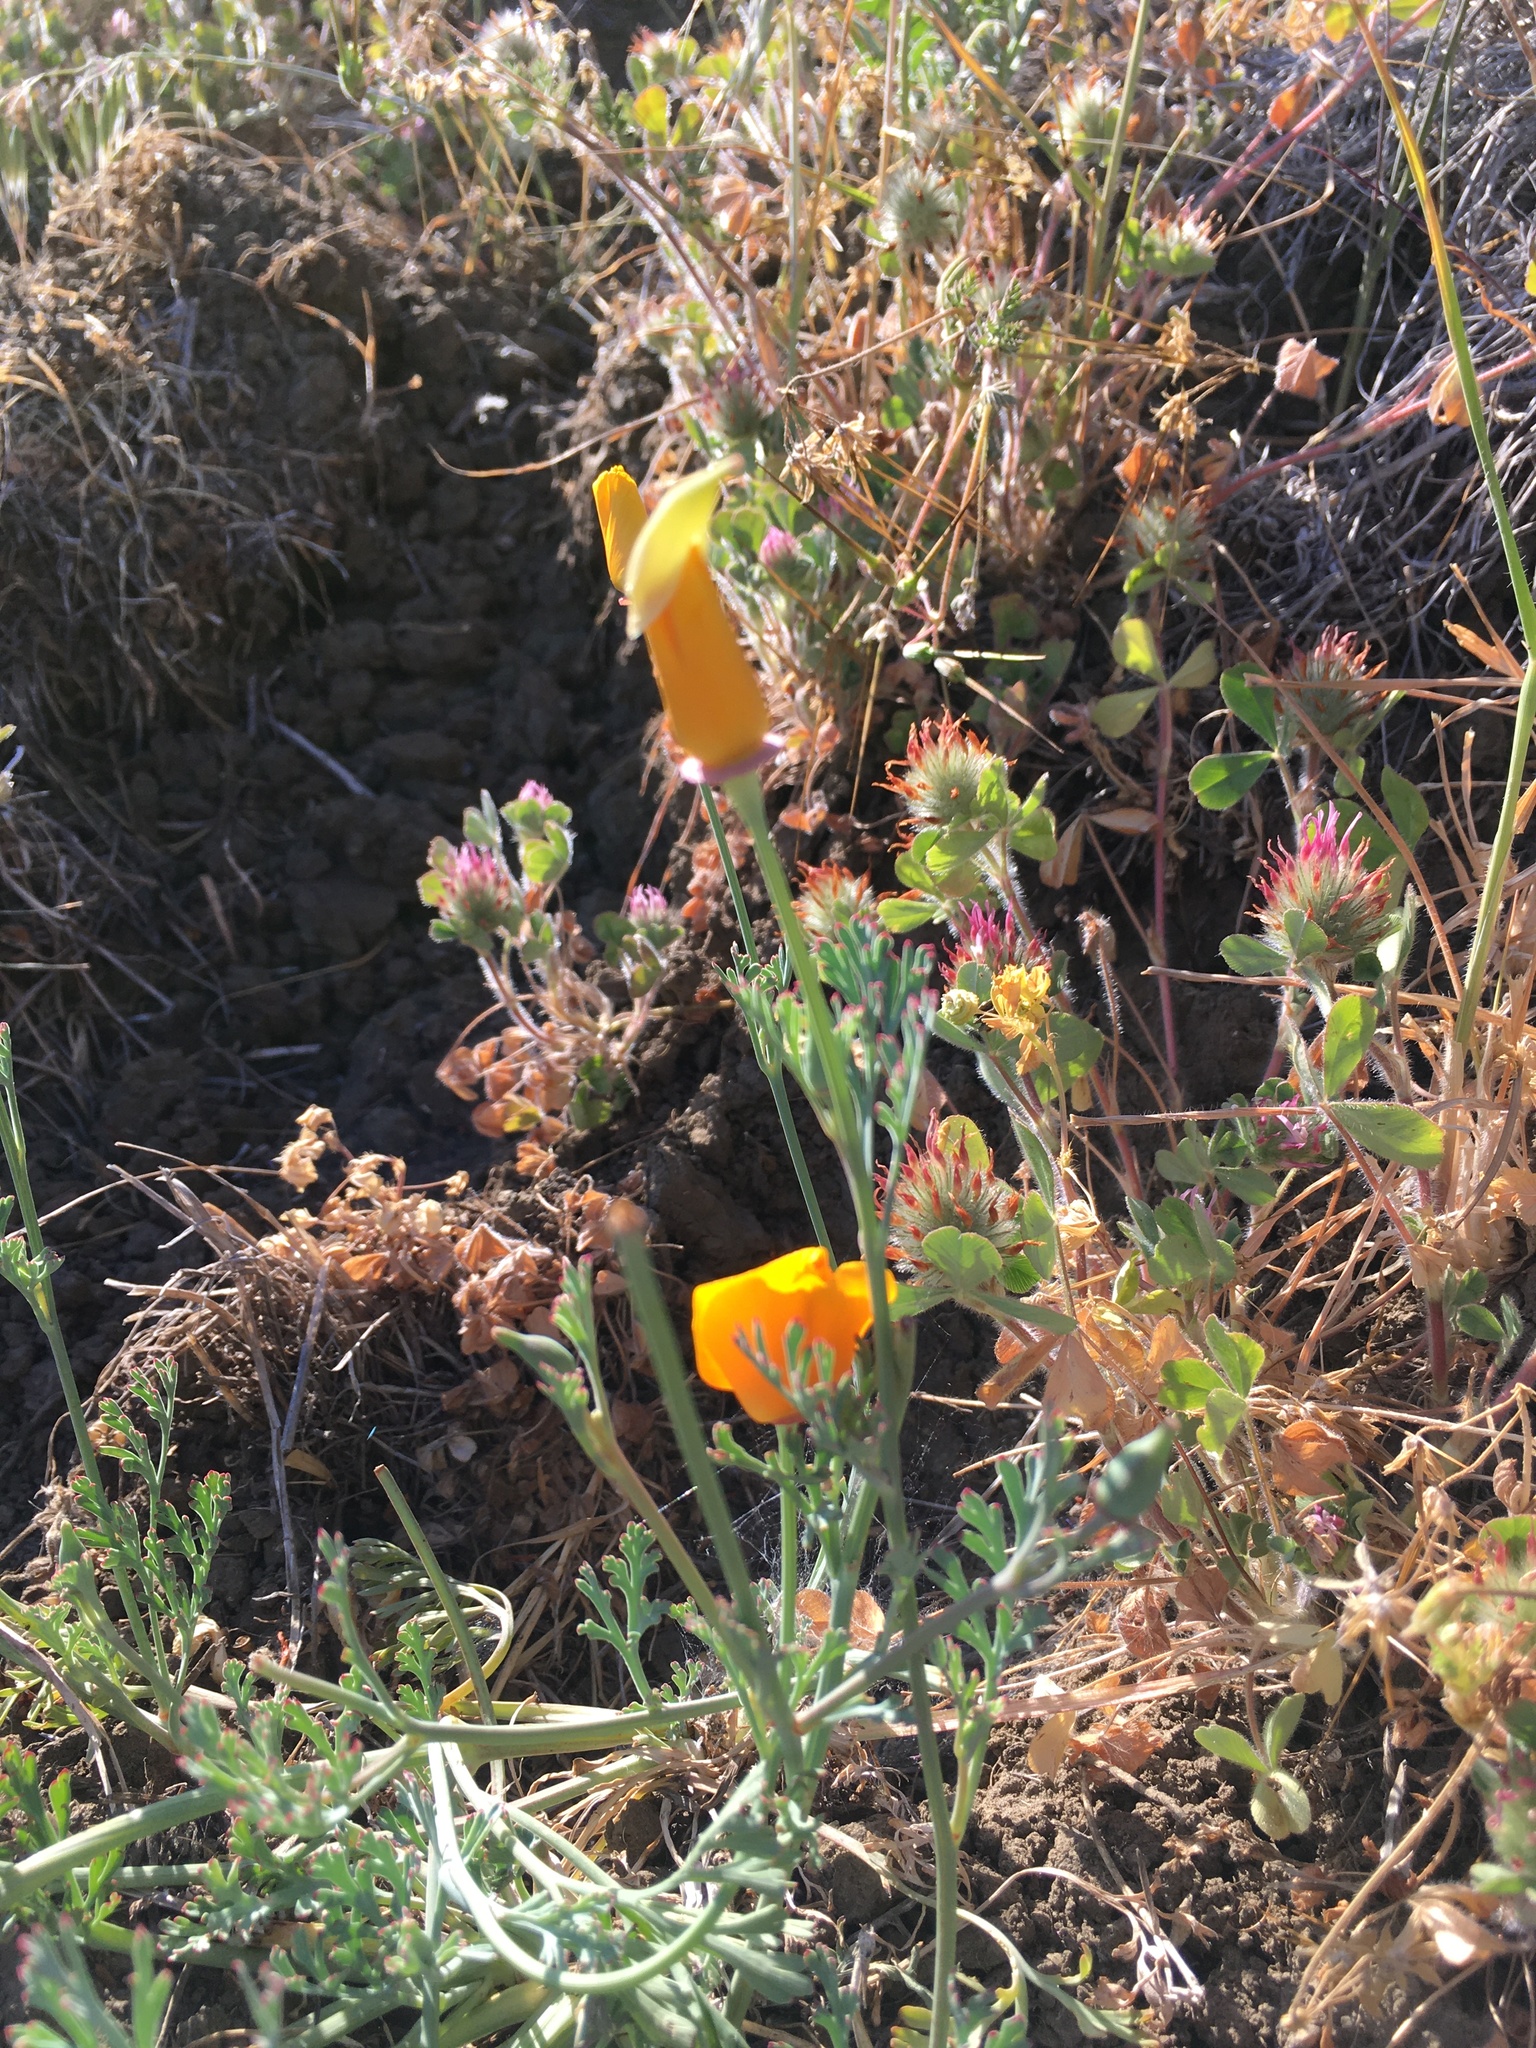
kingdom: Plantae
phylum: Tracheophyta
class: Magnoliopsida
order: Ranunculales
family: Papaveraceae
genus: Eschscholzia
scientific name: Eschscholzia californica
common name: California poppy
